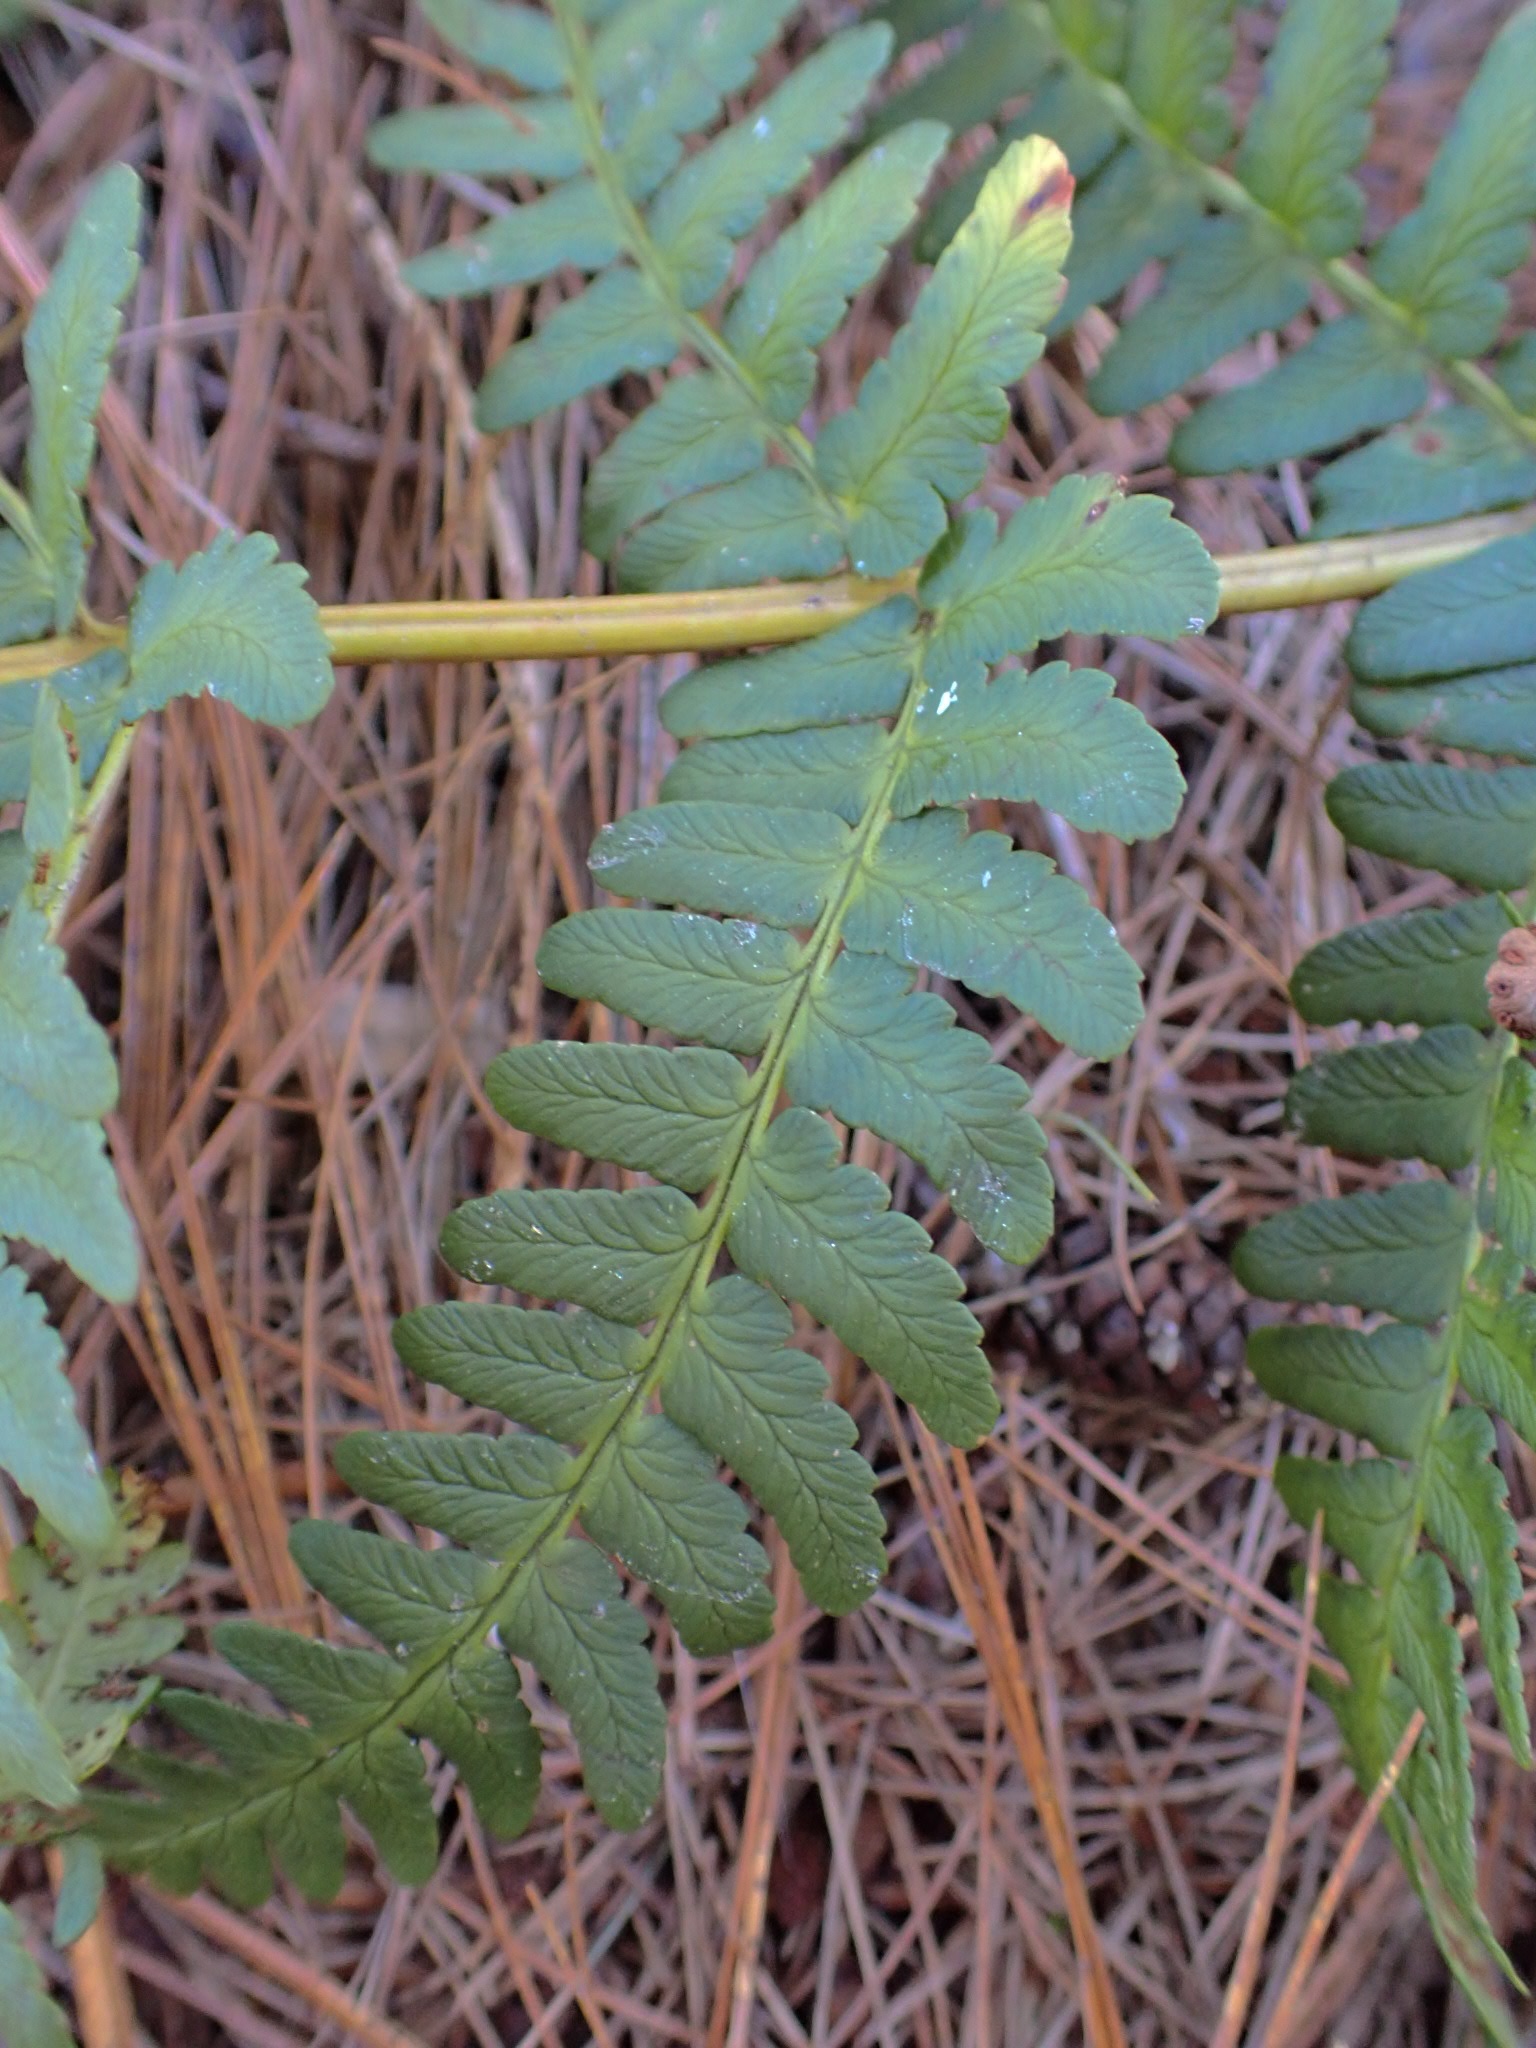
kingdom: Plantae
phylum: Tracheophyta
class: Polypodiopsida
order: Polypodiales
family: Dryopteridaceae
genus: Dryopteris
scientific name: Dryopteris marginalis
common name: Marginal wood fern
